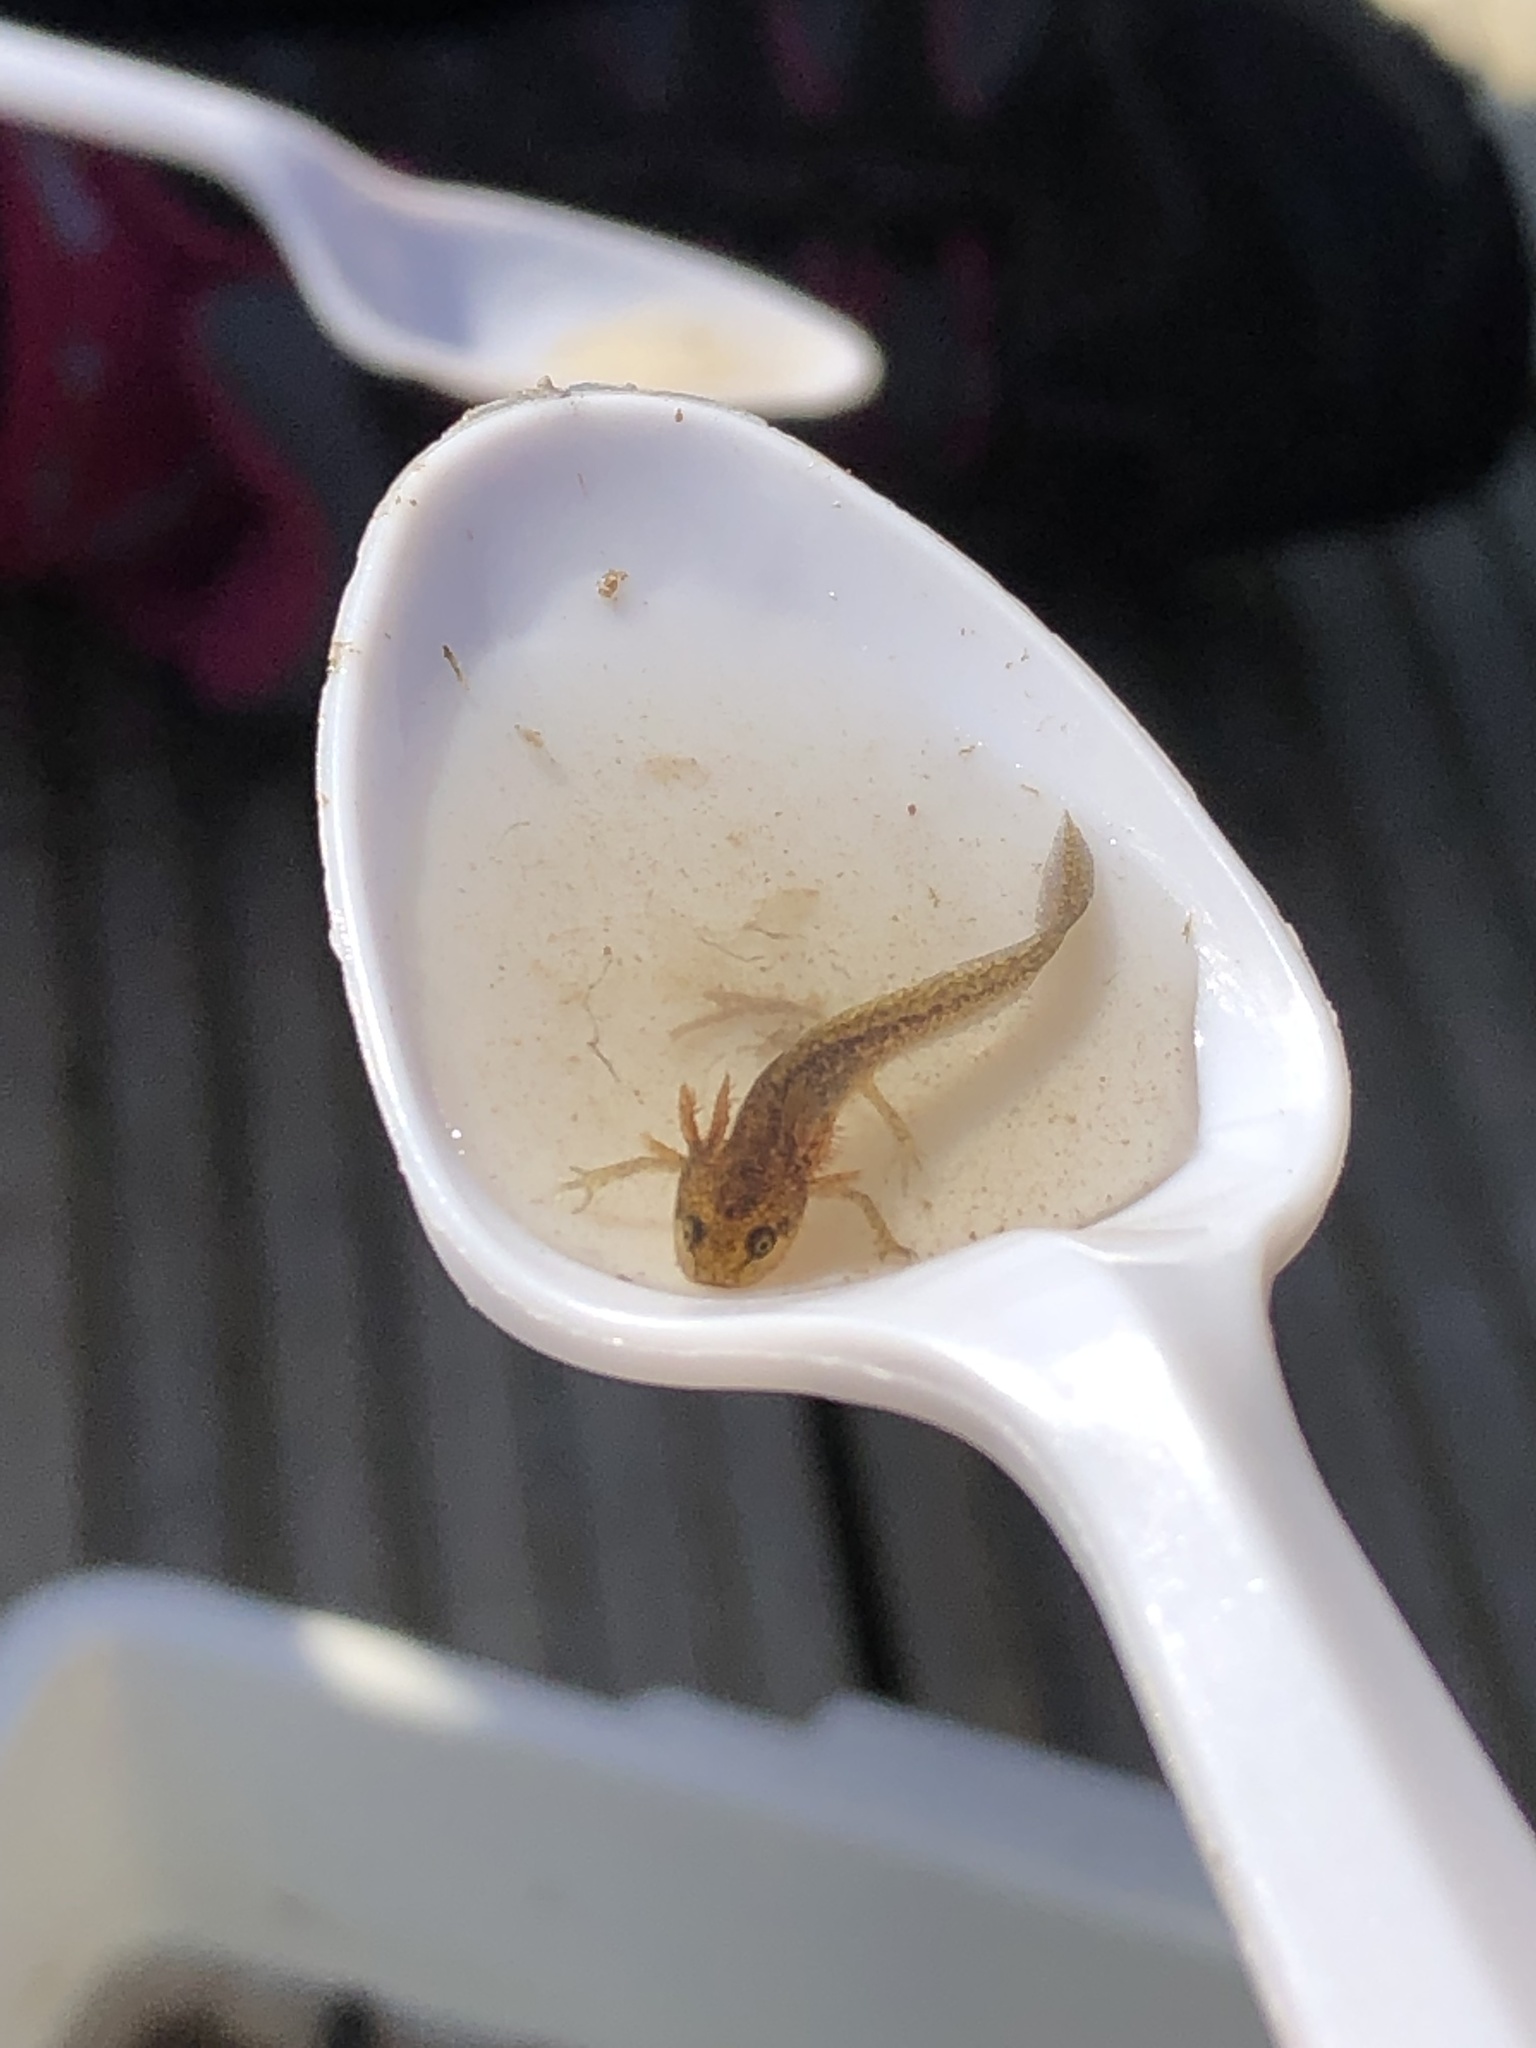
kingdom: Animalia
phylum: Chordata
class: Amphibia
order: Caudata
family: Salamandridae
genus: Lissotriton
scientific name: Lissotriton
